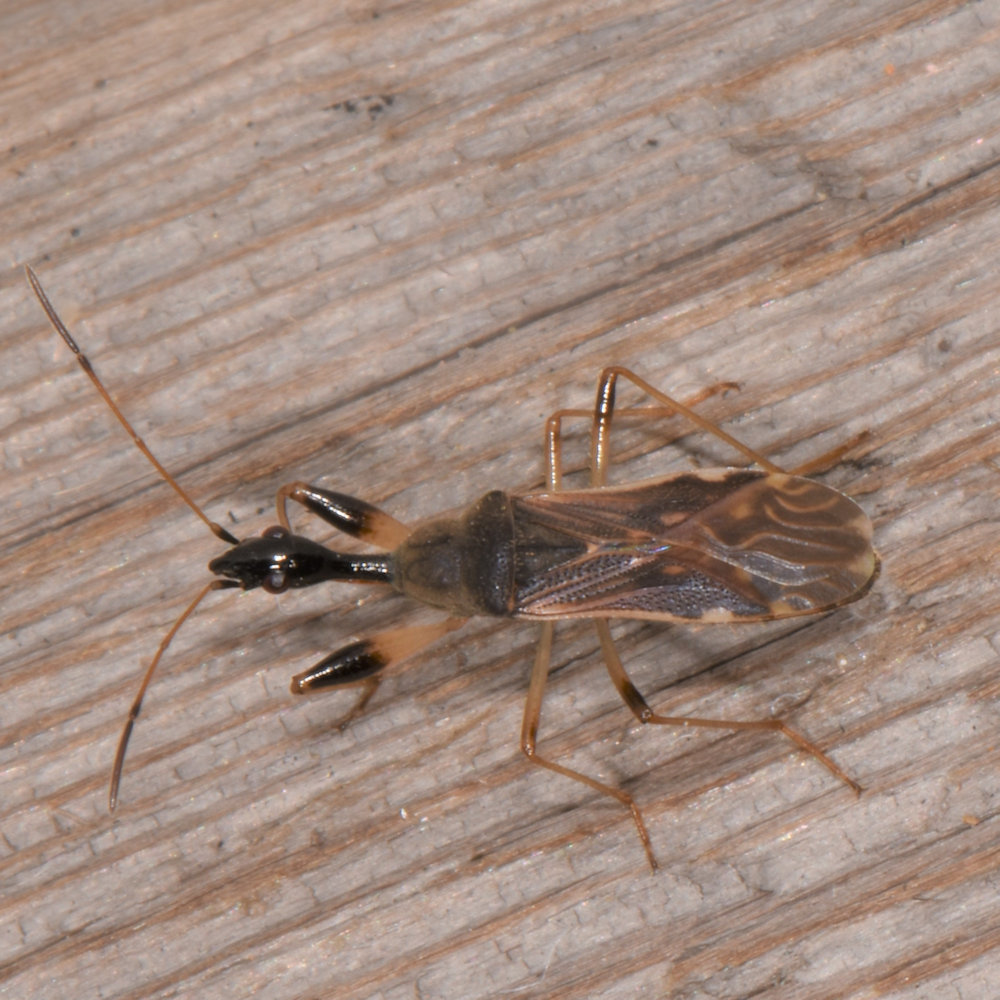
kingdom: Animalia
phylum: Arthropoda
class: Insecta
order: Hemiptera
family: Rhyparochromidae
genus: Myodocha
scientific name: Myodocha serripes
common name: Long-necked seed bug
